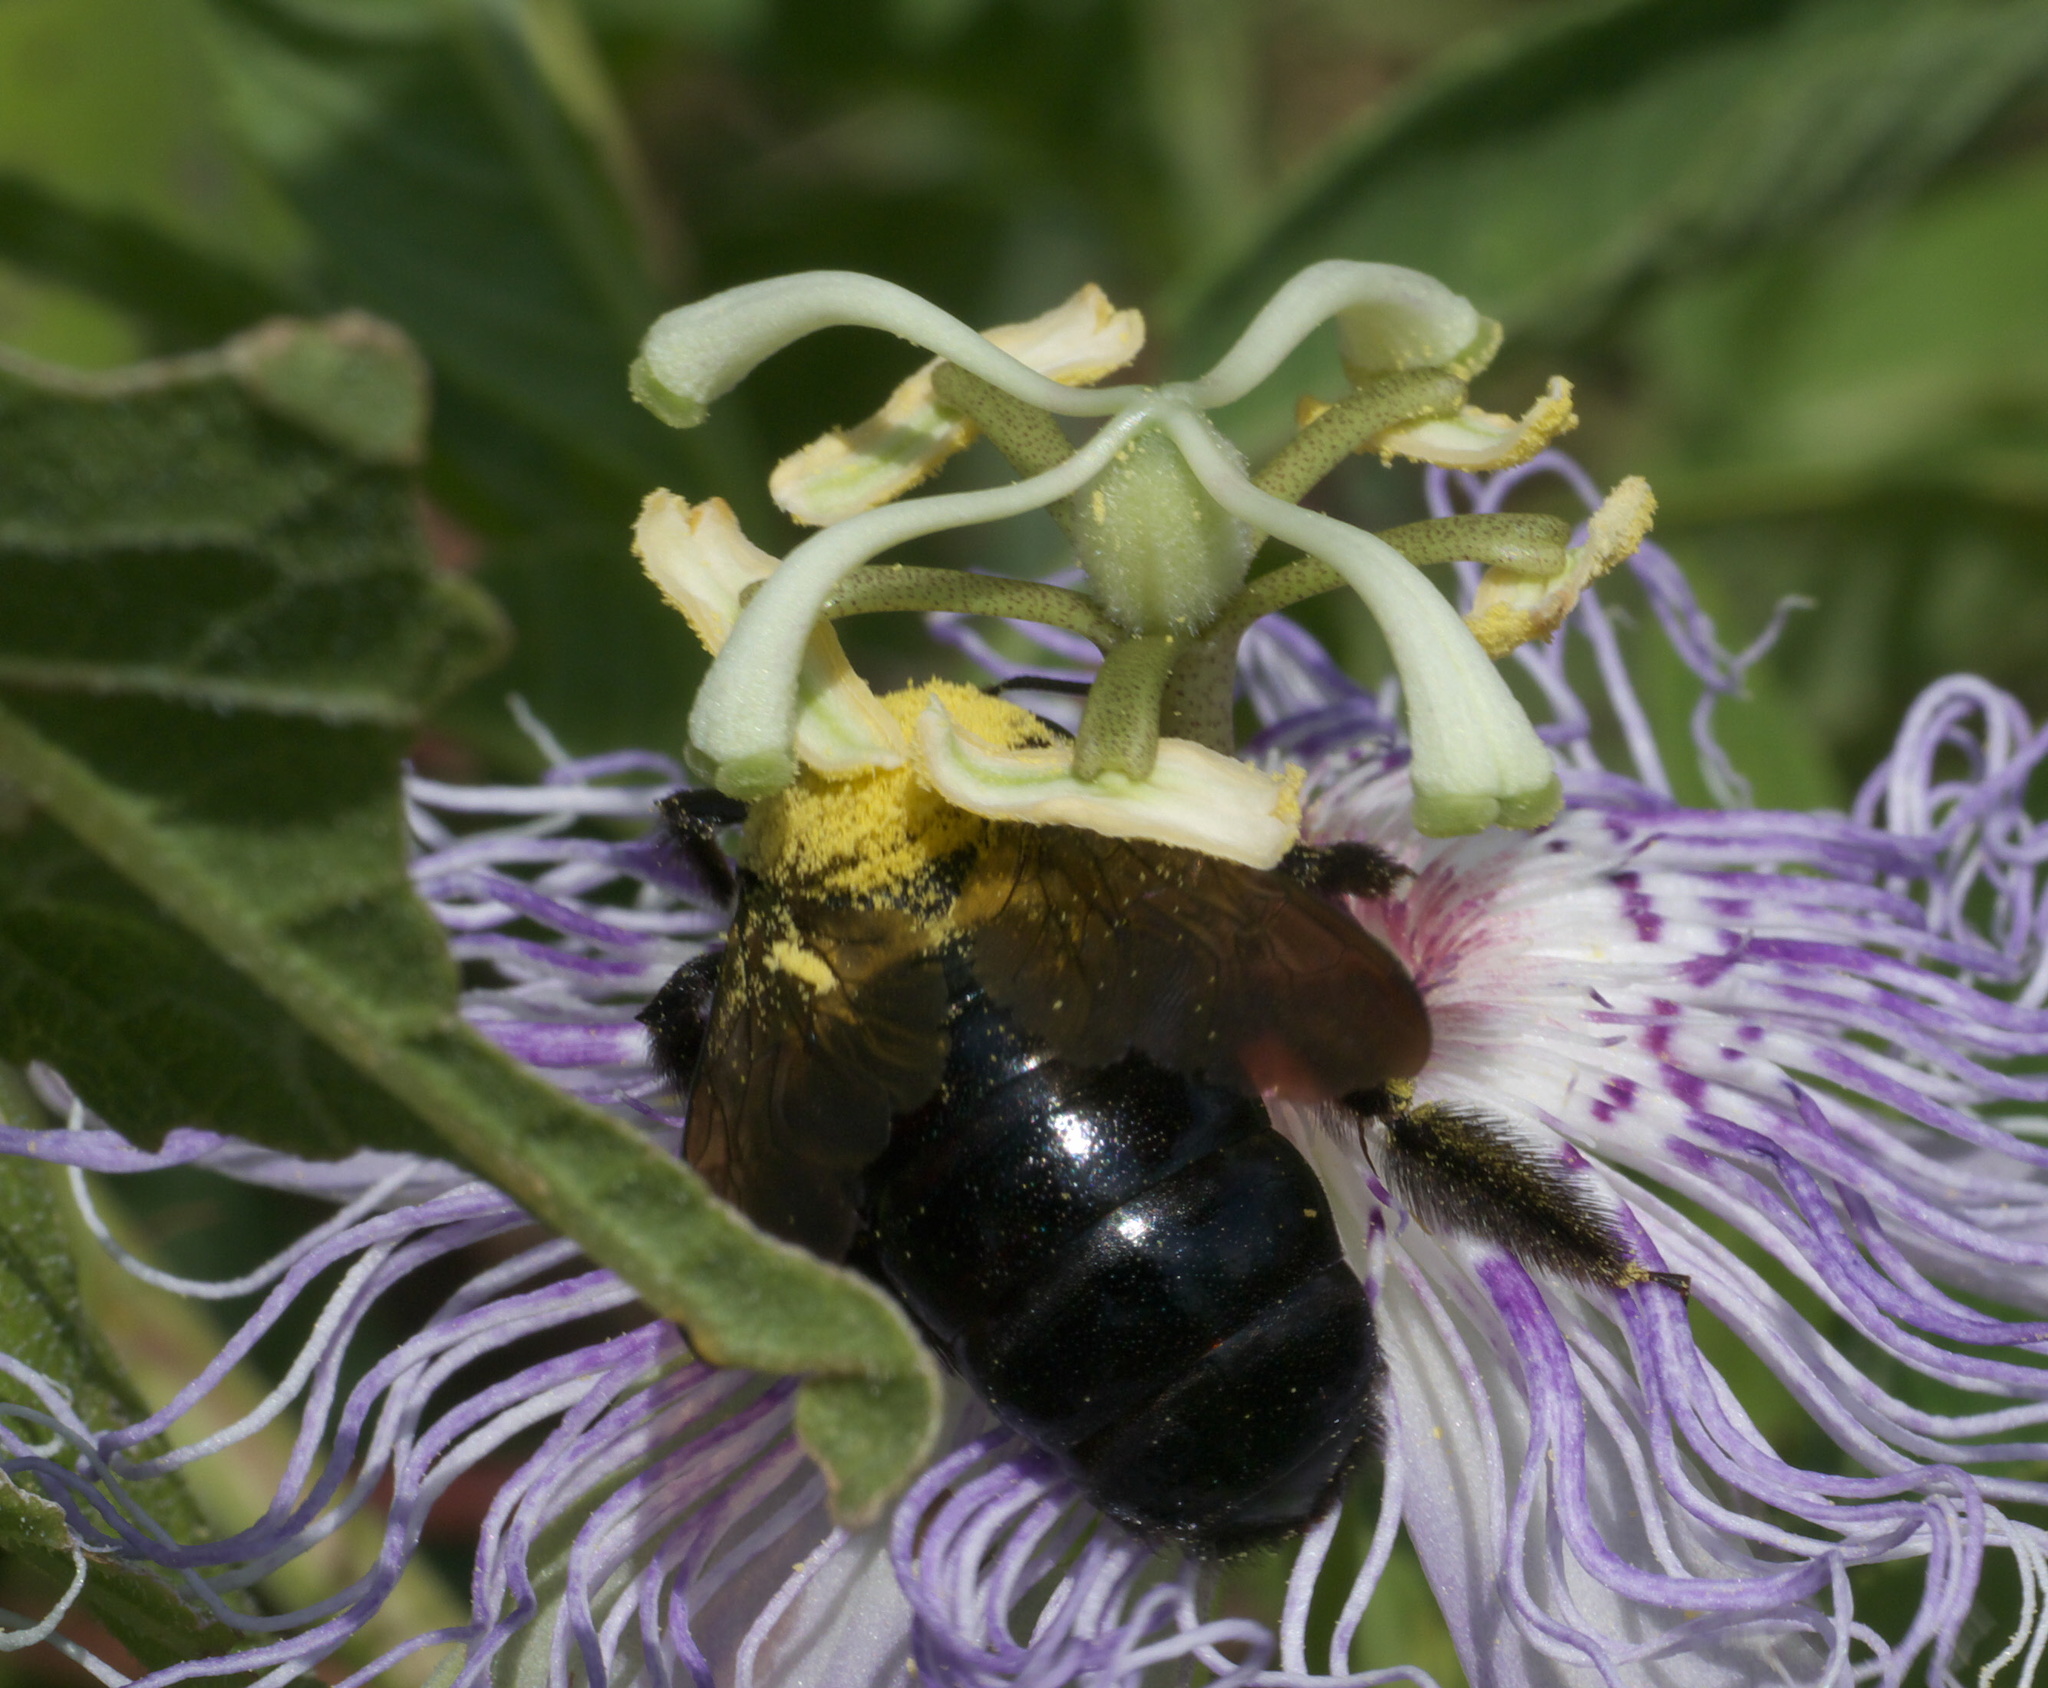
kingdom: Animalia
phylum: Arthropoda
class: Insecta
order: Hymenoptera
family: Apidae
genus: Xylocopa
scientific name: Xylocopa virginica
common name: Carpenter bee
